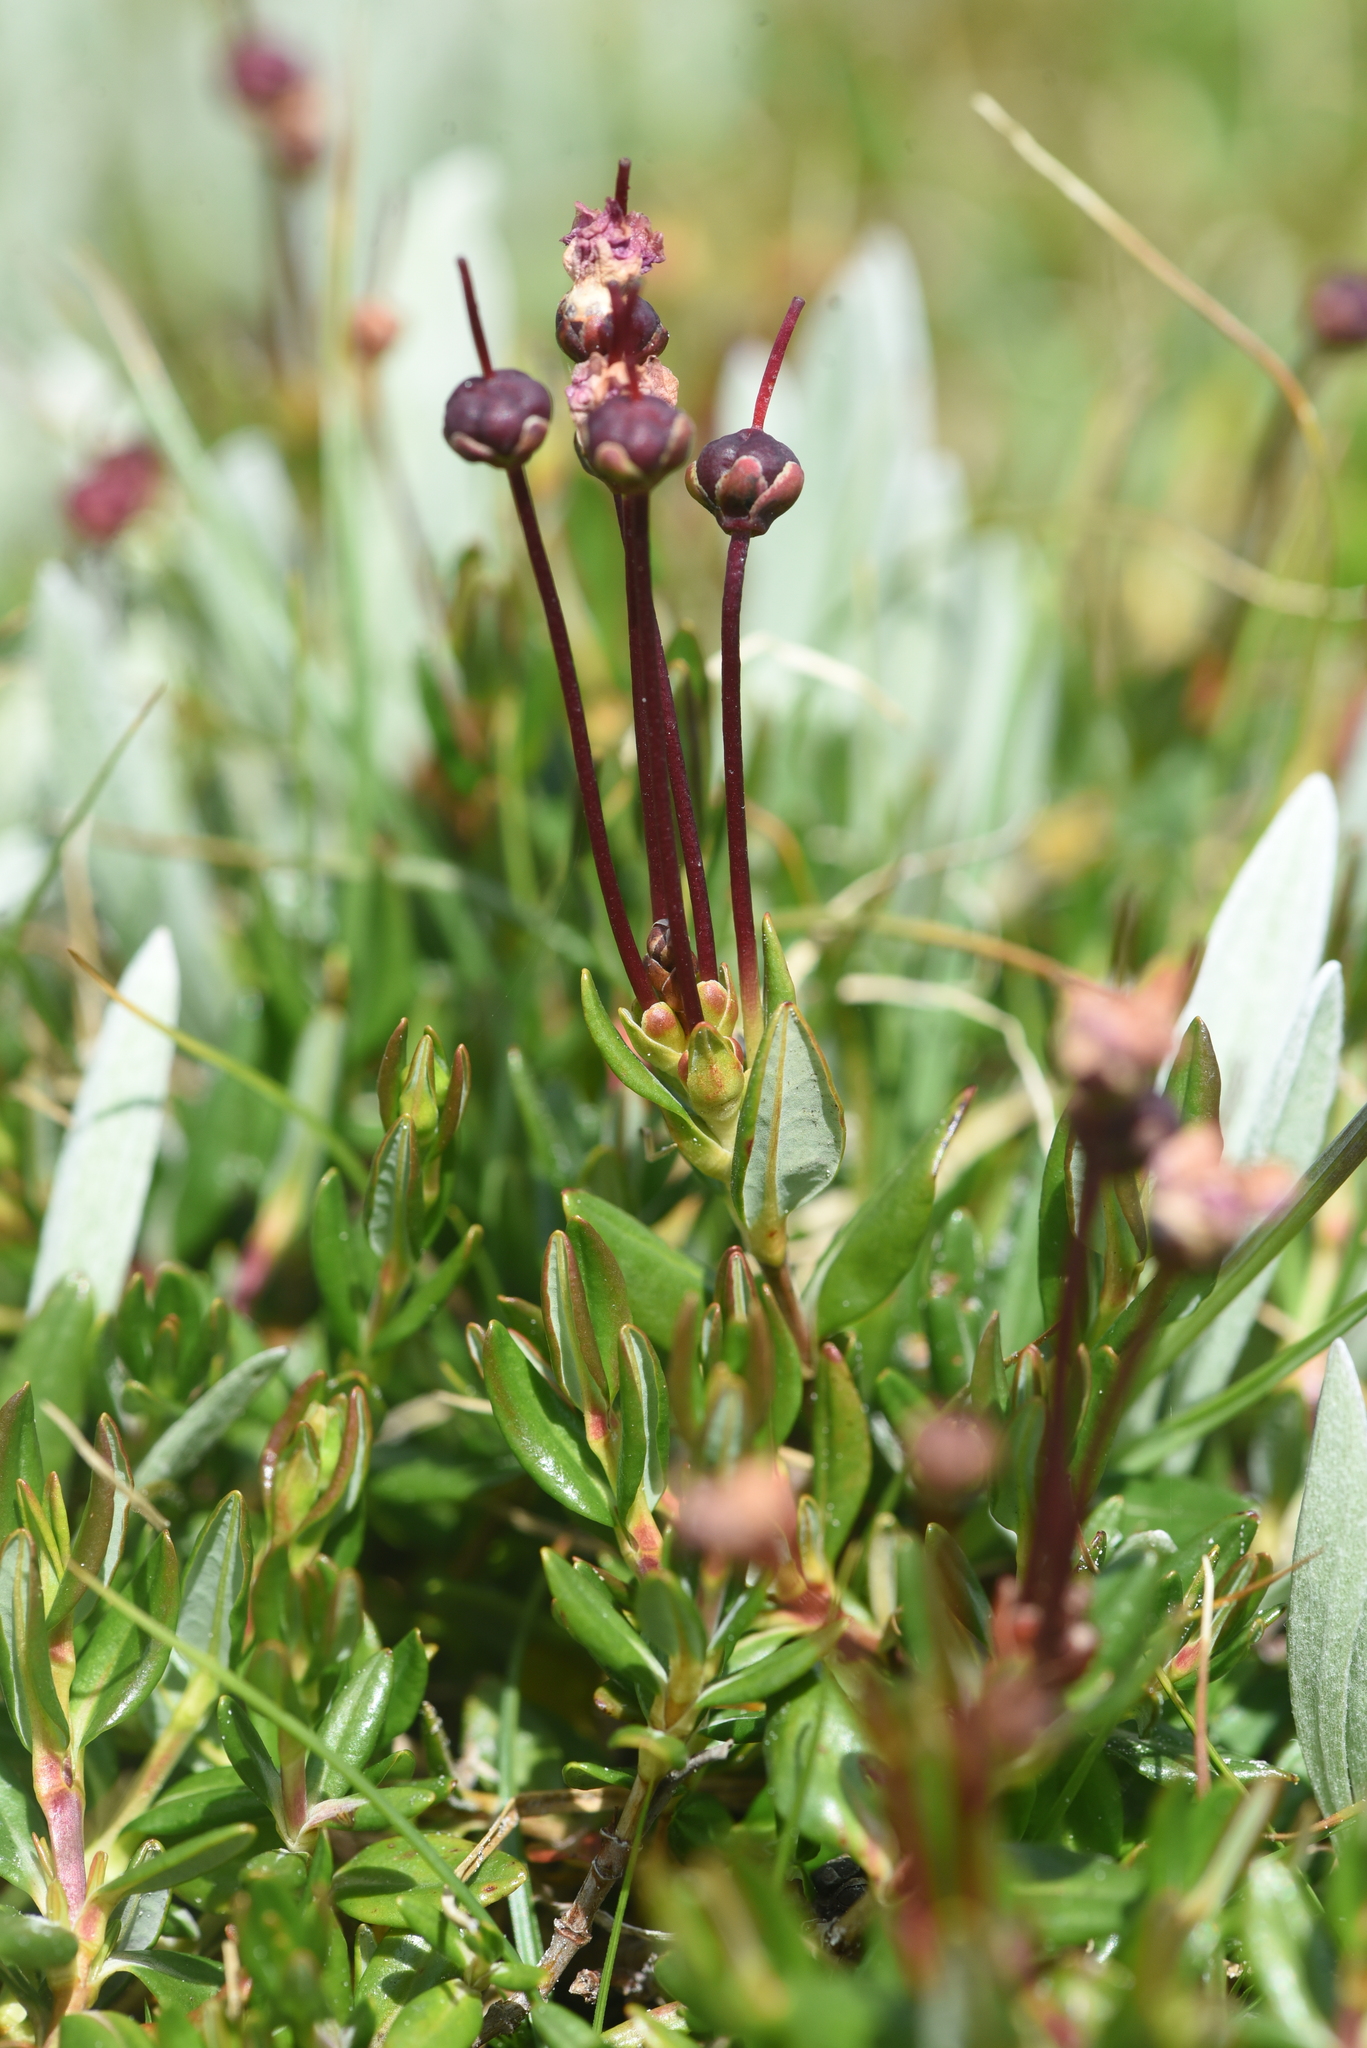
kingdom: Plantae
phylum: Tracheophyta
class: Magnoliopsida
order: Ericales
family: Ericaceae
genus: Kalmia
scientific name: Kalmia microphylla
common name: Alpine bog laurel
